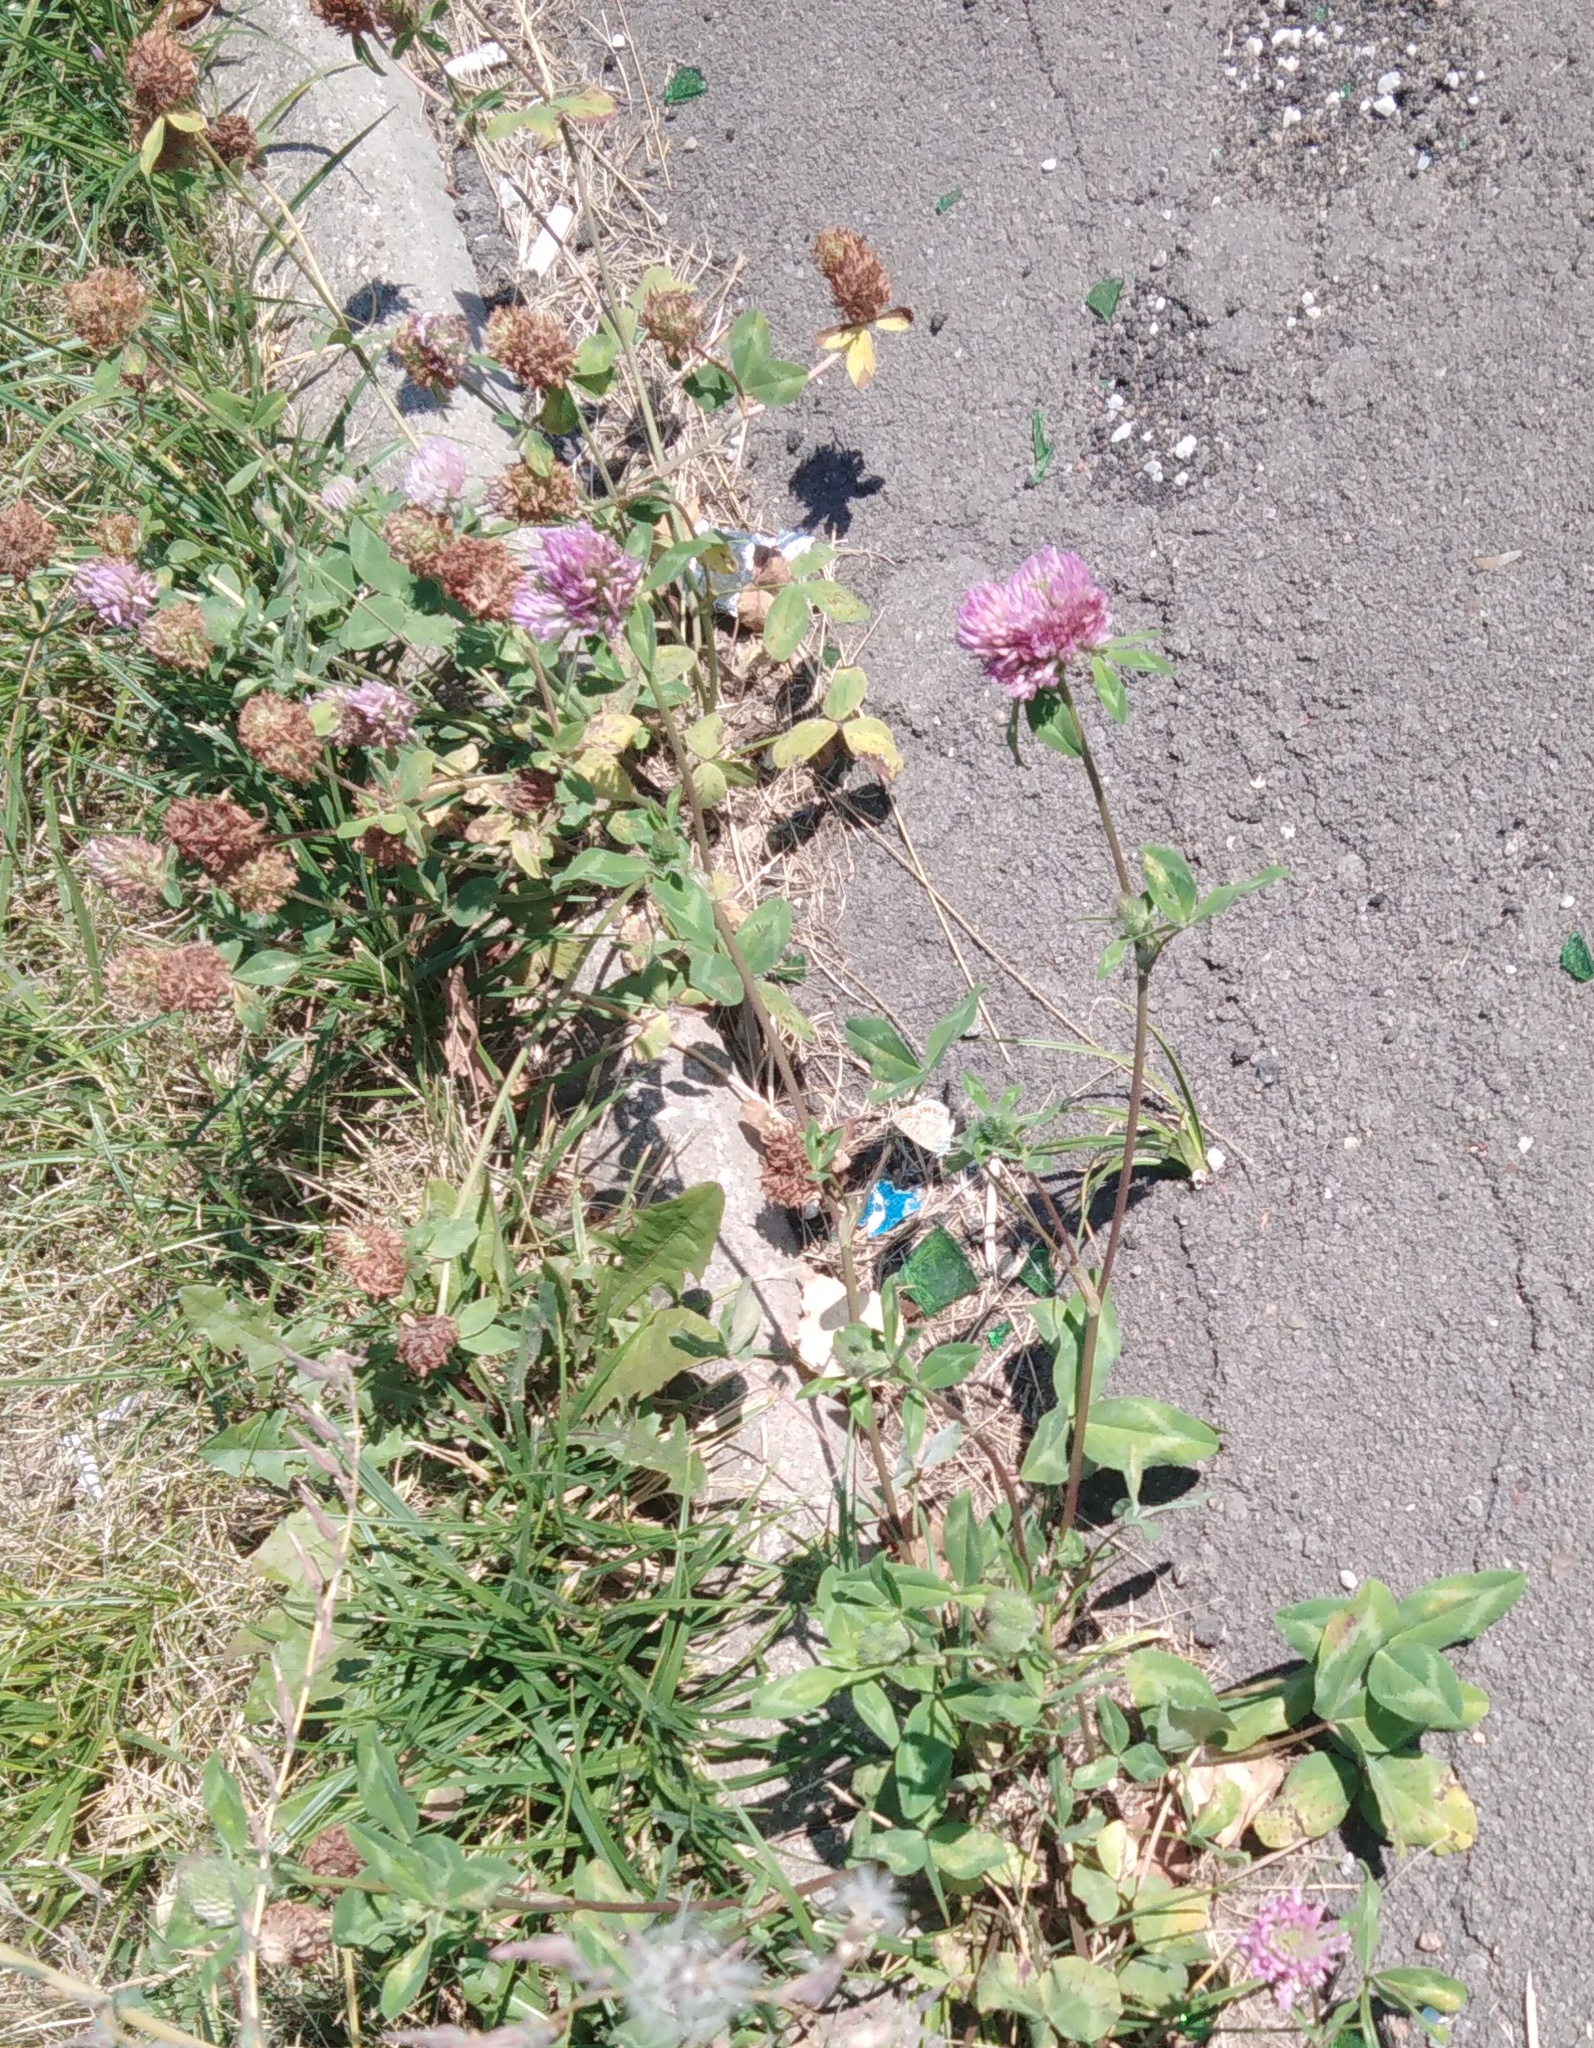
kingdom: Plantae
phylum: Tracheophyta
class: Magnoliopsida
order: Fabales
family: Fabaceae
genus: Trifolium
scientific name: Trifolium pratense
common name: Red clover
